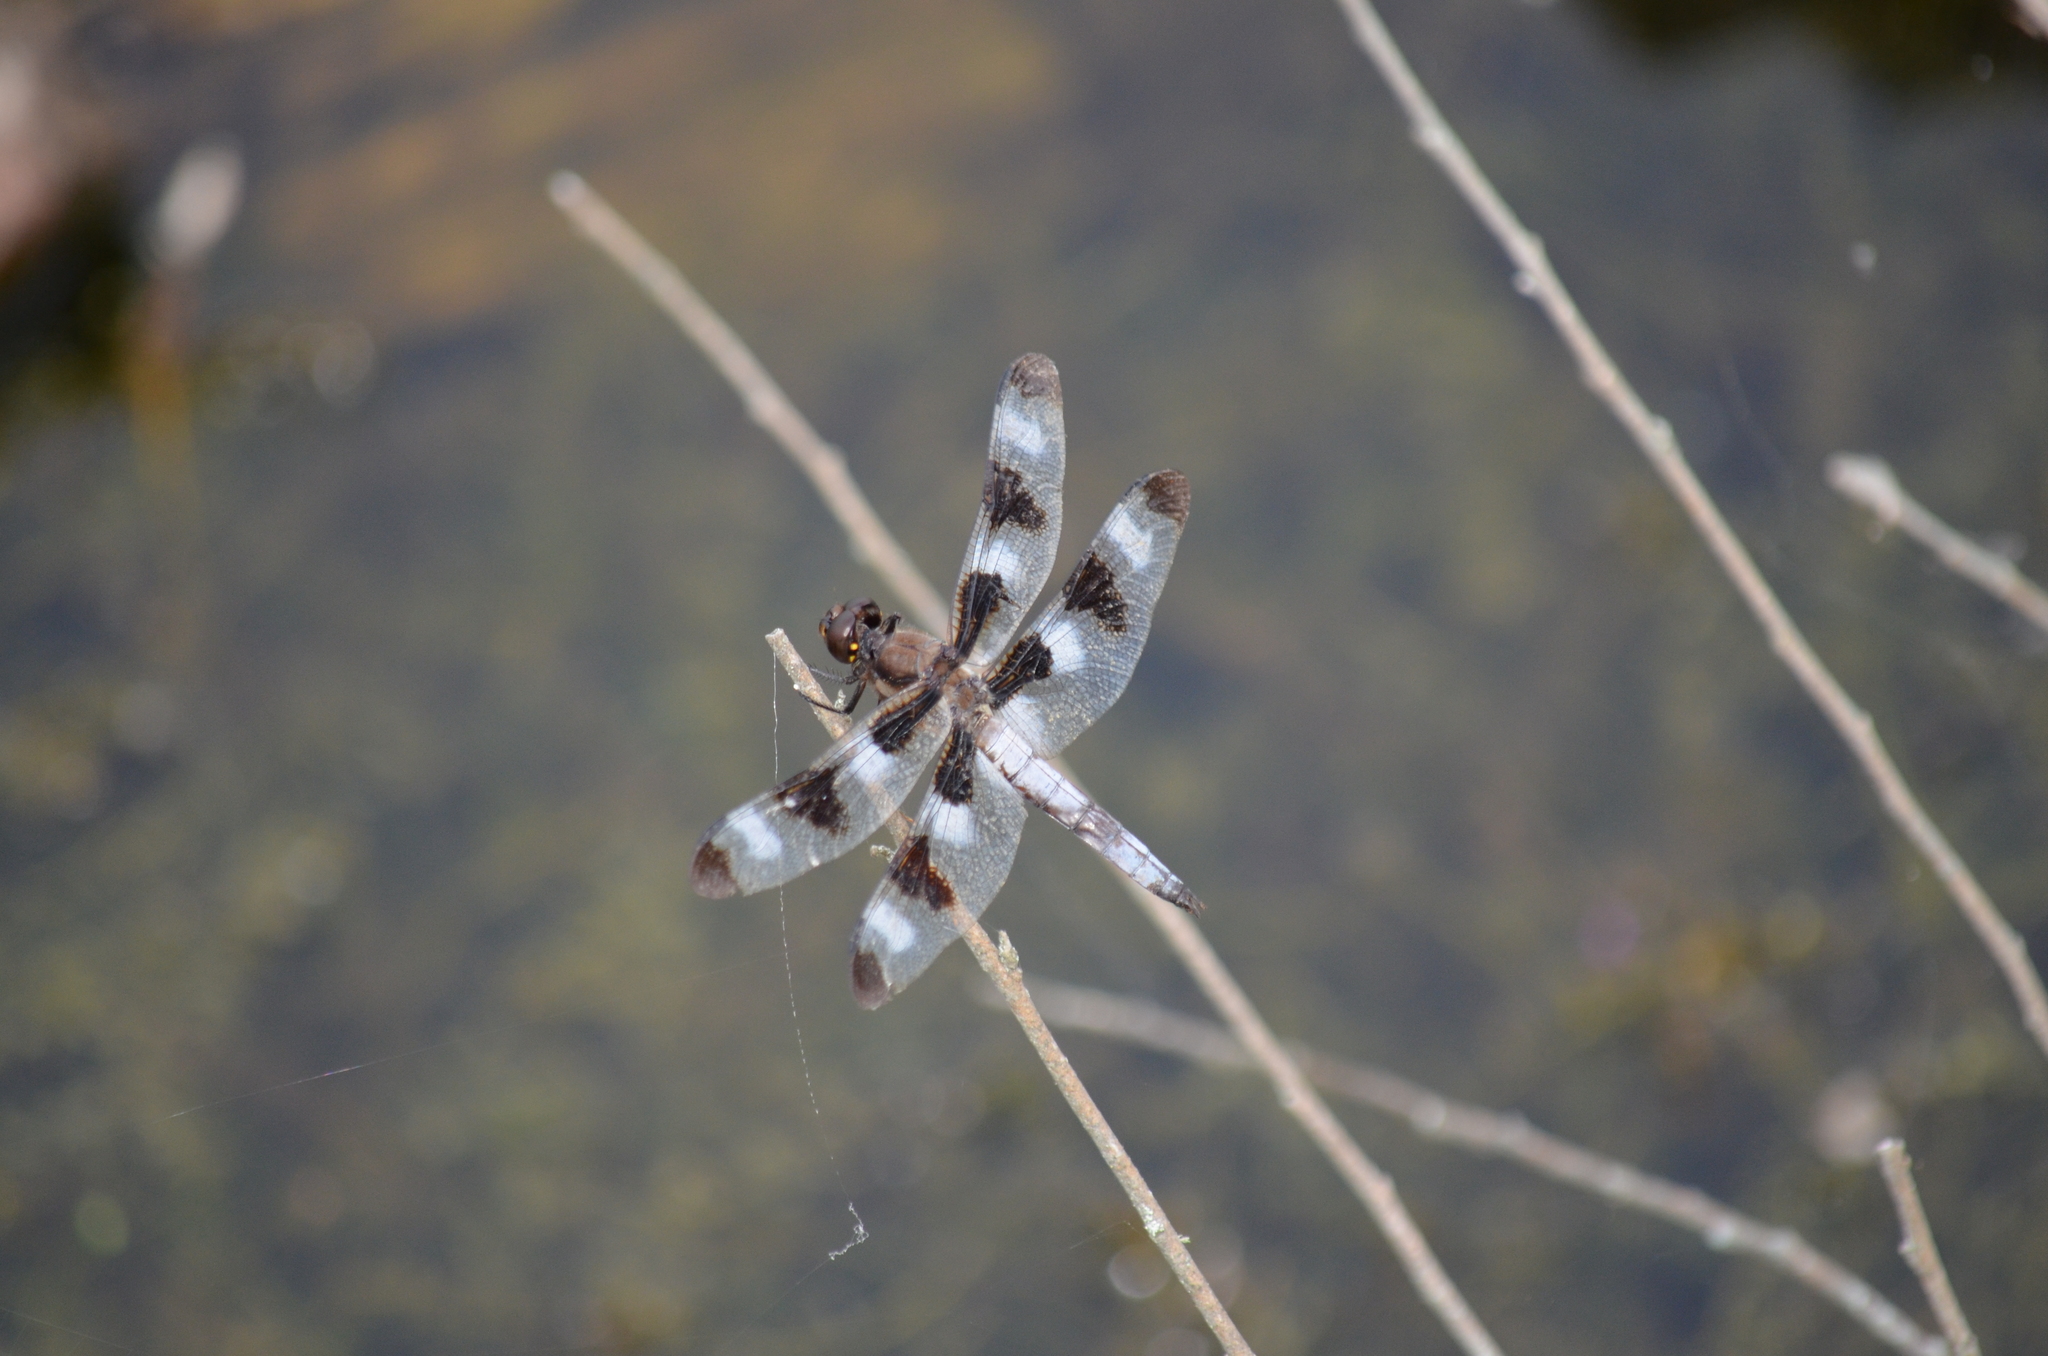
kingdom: Animalia
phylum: Arthropoda
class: Insecta
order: Odonata
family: Libellulidae
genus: Libellula
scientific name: Libellula pulchella
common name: Twelve-spotted skimmer
